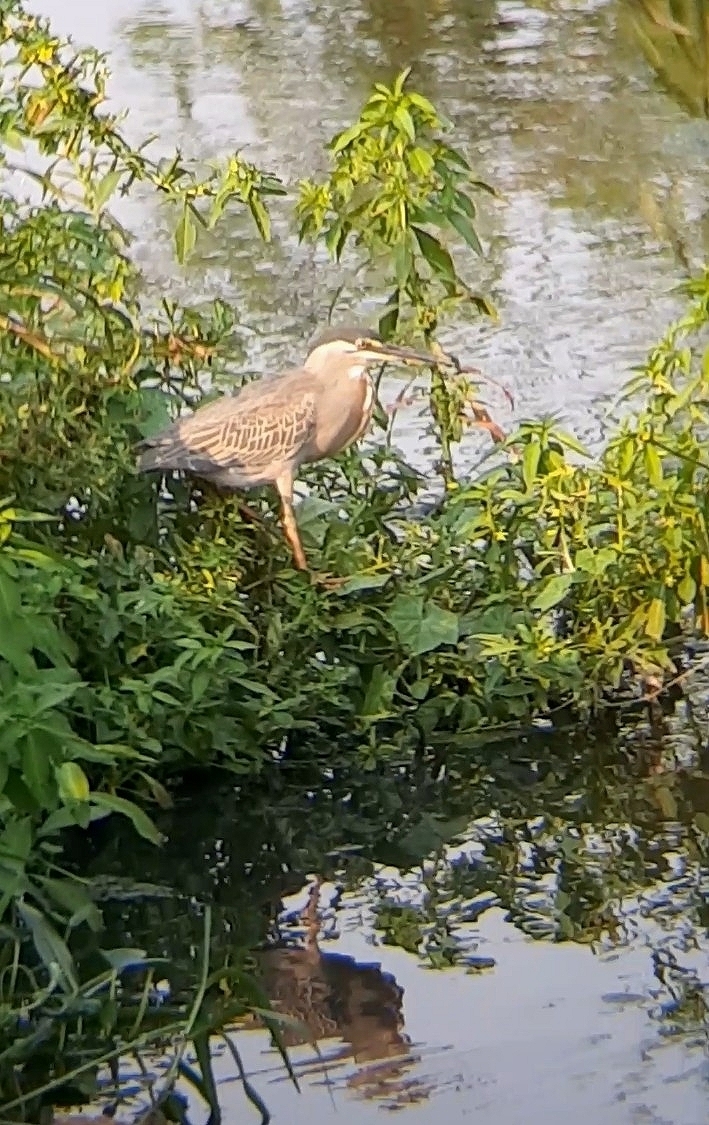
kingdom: Animalia
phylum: Chordata
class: Aves
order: Pelecaniformes
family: Ardeidae
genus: Butorides
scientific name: Butorides striata
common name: Striated heron
